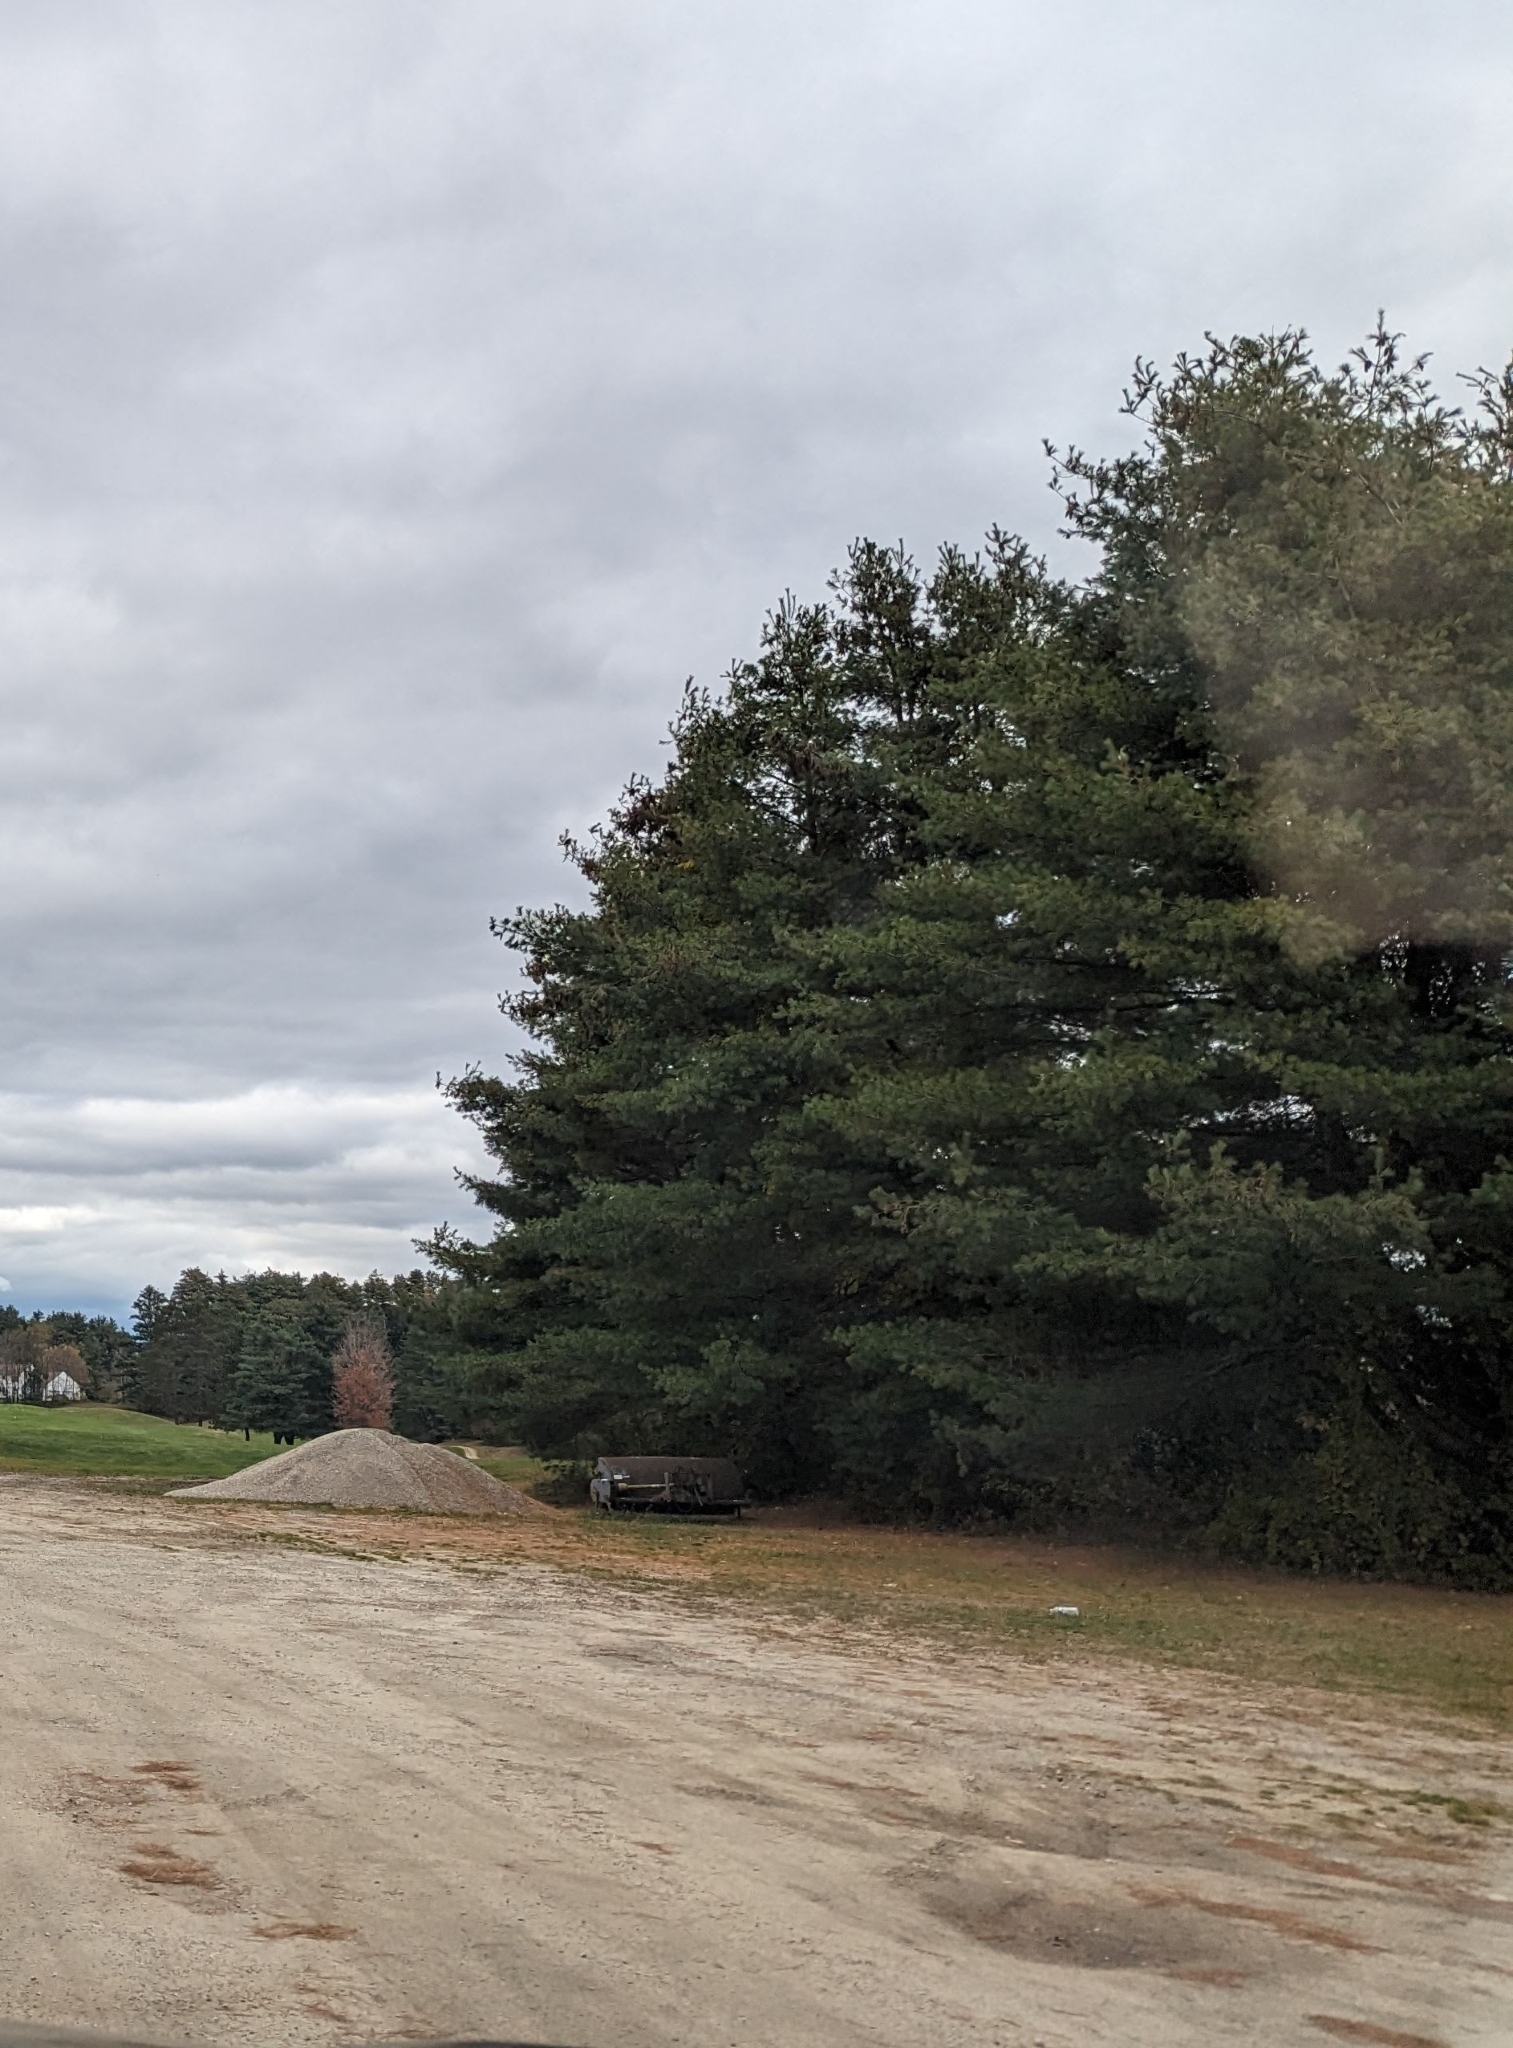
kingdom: Plantae
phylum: Tracheophyta
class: Pinopsida
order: Pinales
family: Pinaceae
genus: Pinus
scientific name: Pinus strobus
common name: Weymouth pine
